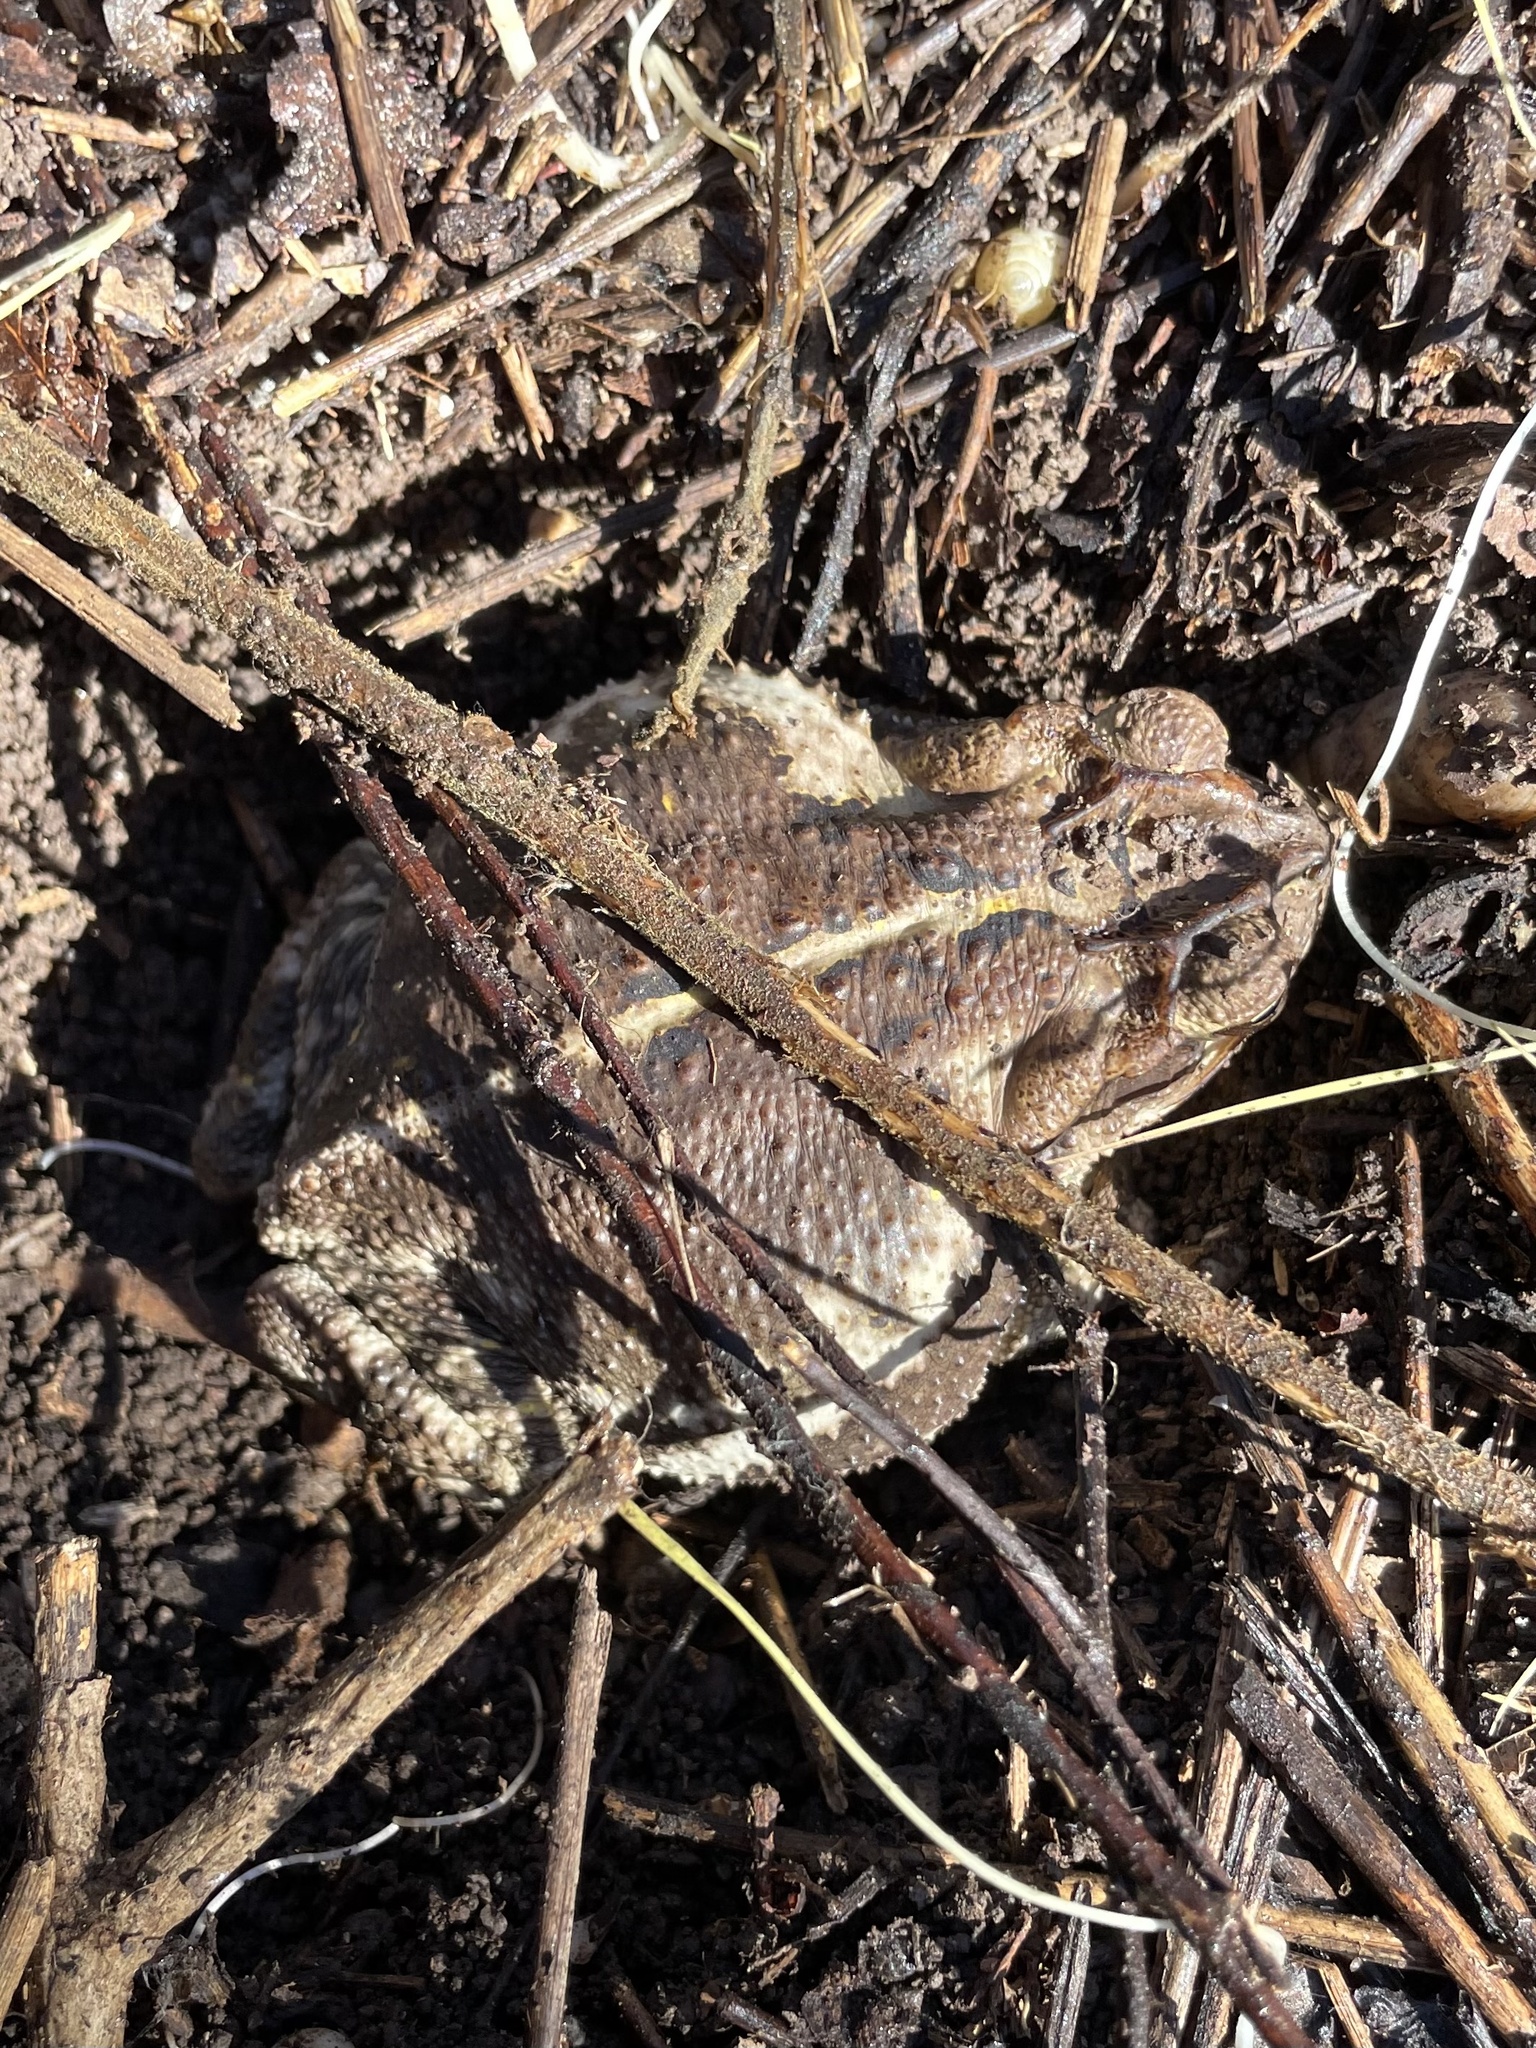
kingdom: Animalia
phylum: Chordata
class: Amphibia
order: Anura
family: Bufonidae
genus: Incilius
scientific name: Incilius nebulifer
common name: Gulf coast toad
